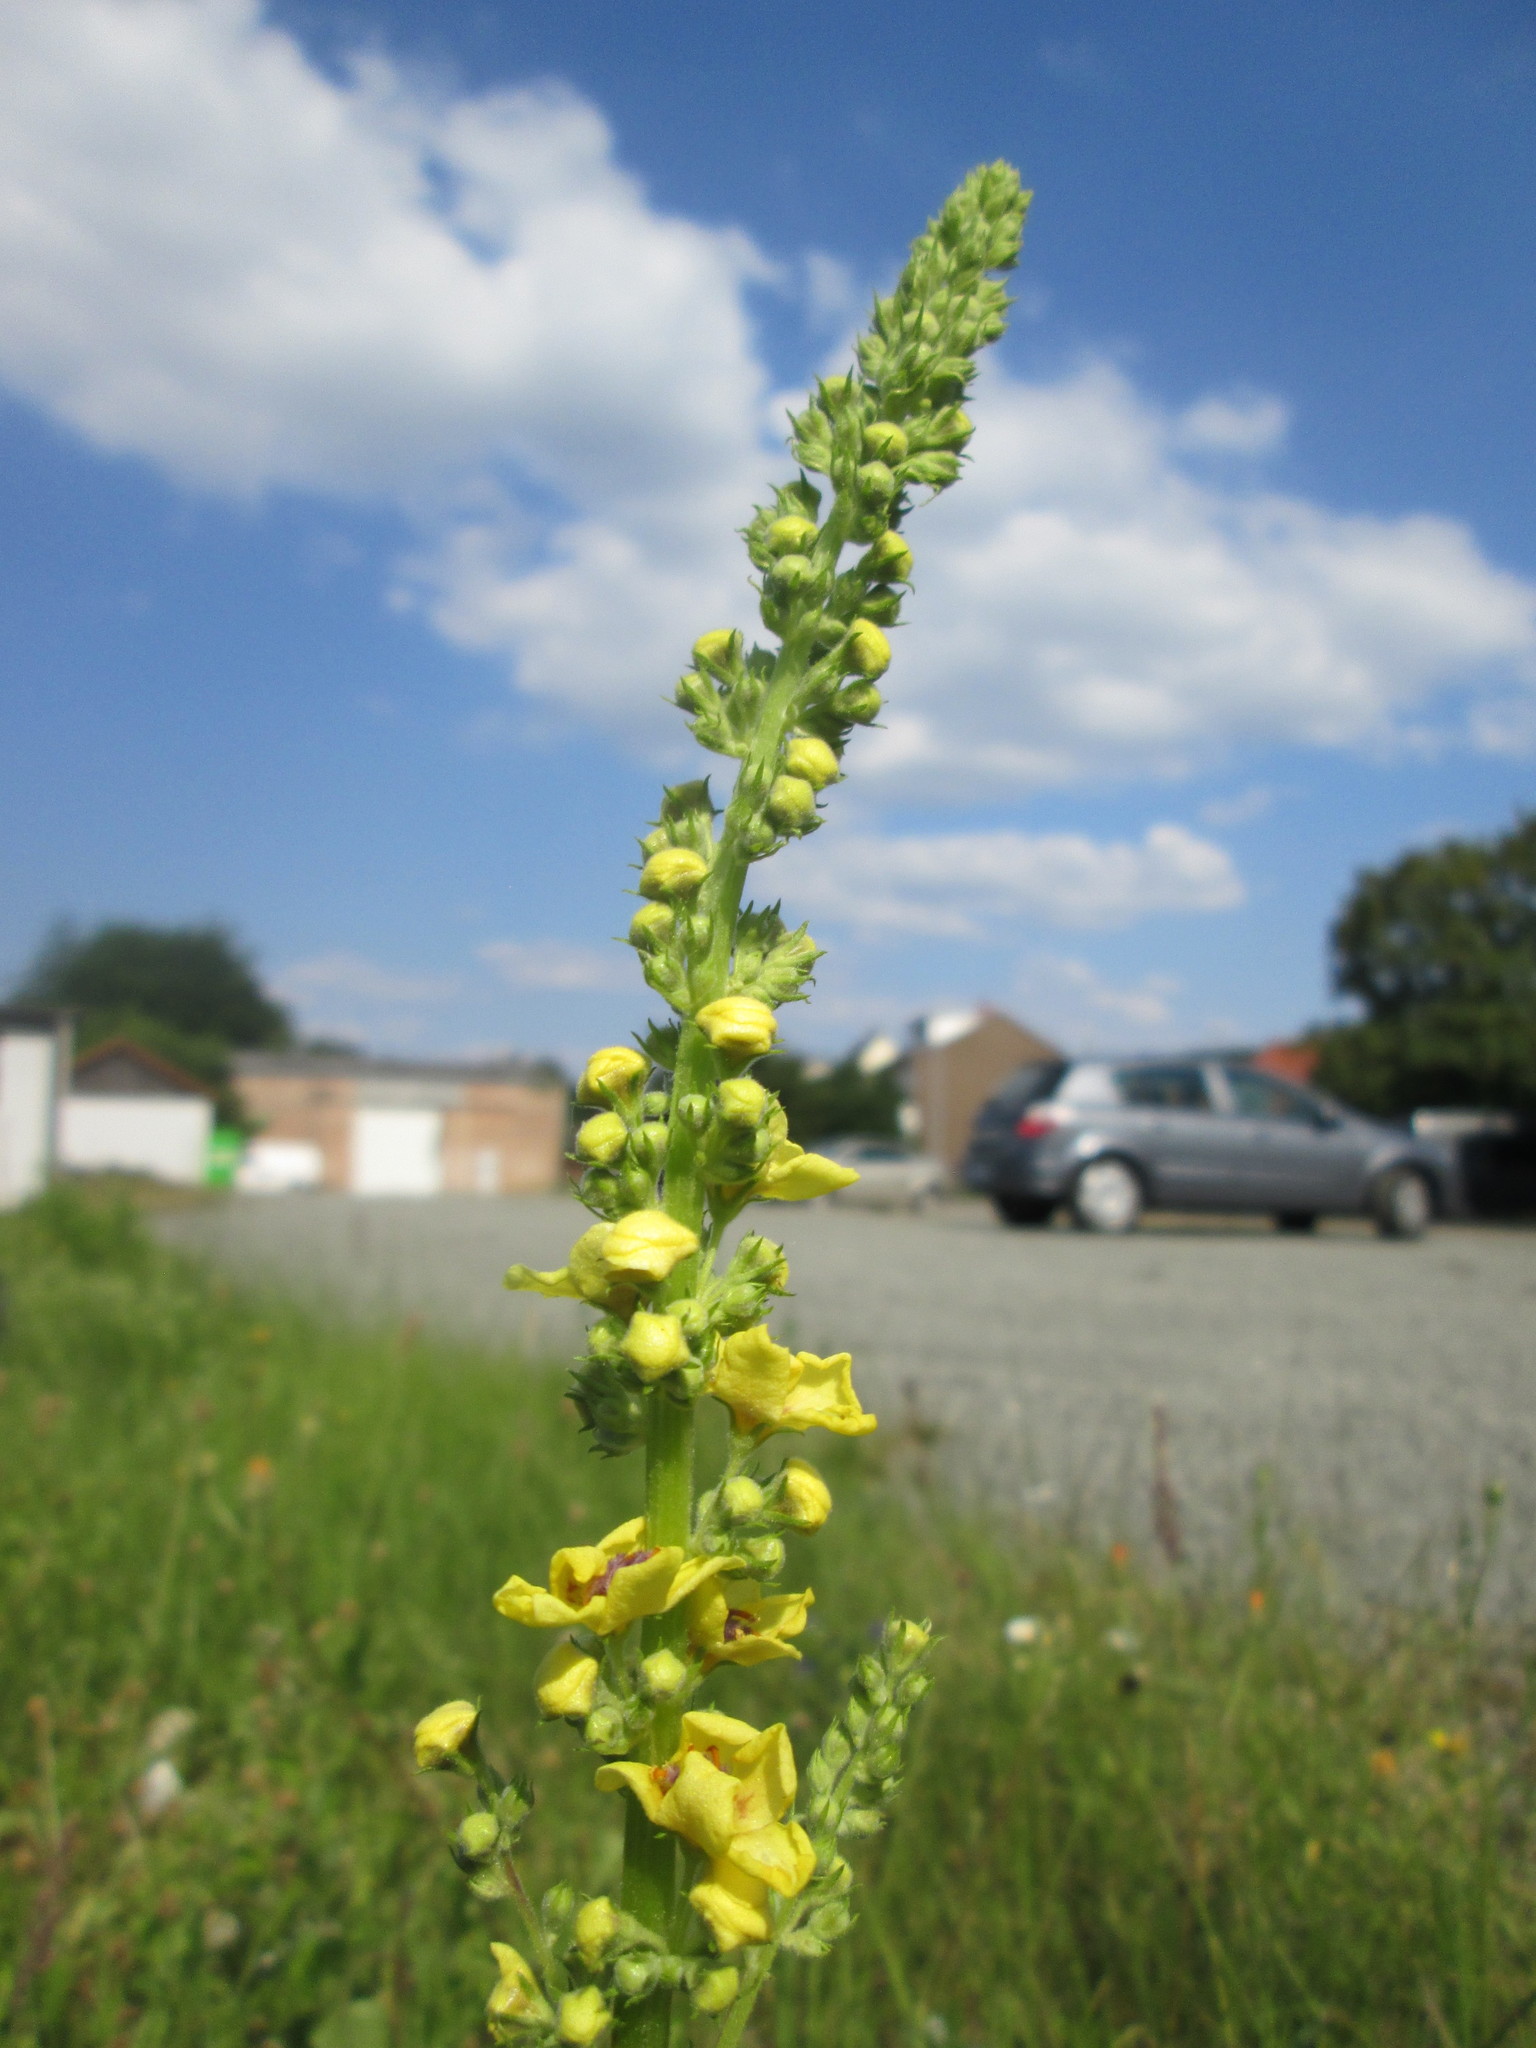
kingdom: Plantae
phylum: Tracheophyta
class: Magnoliopsida
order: Lamiales
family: Scrophulariaceae
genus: Verbascum
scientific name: Verbascum nigrum
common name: Dark mullein
